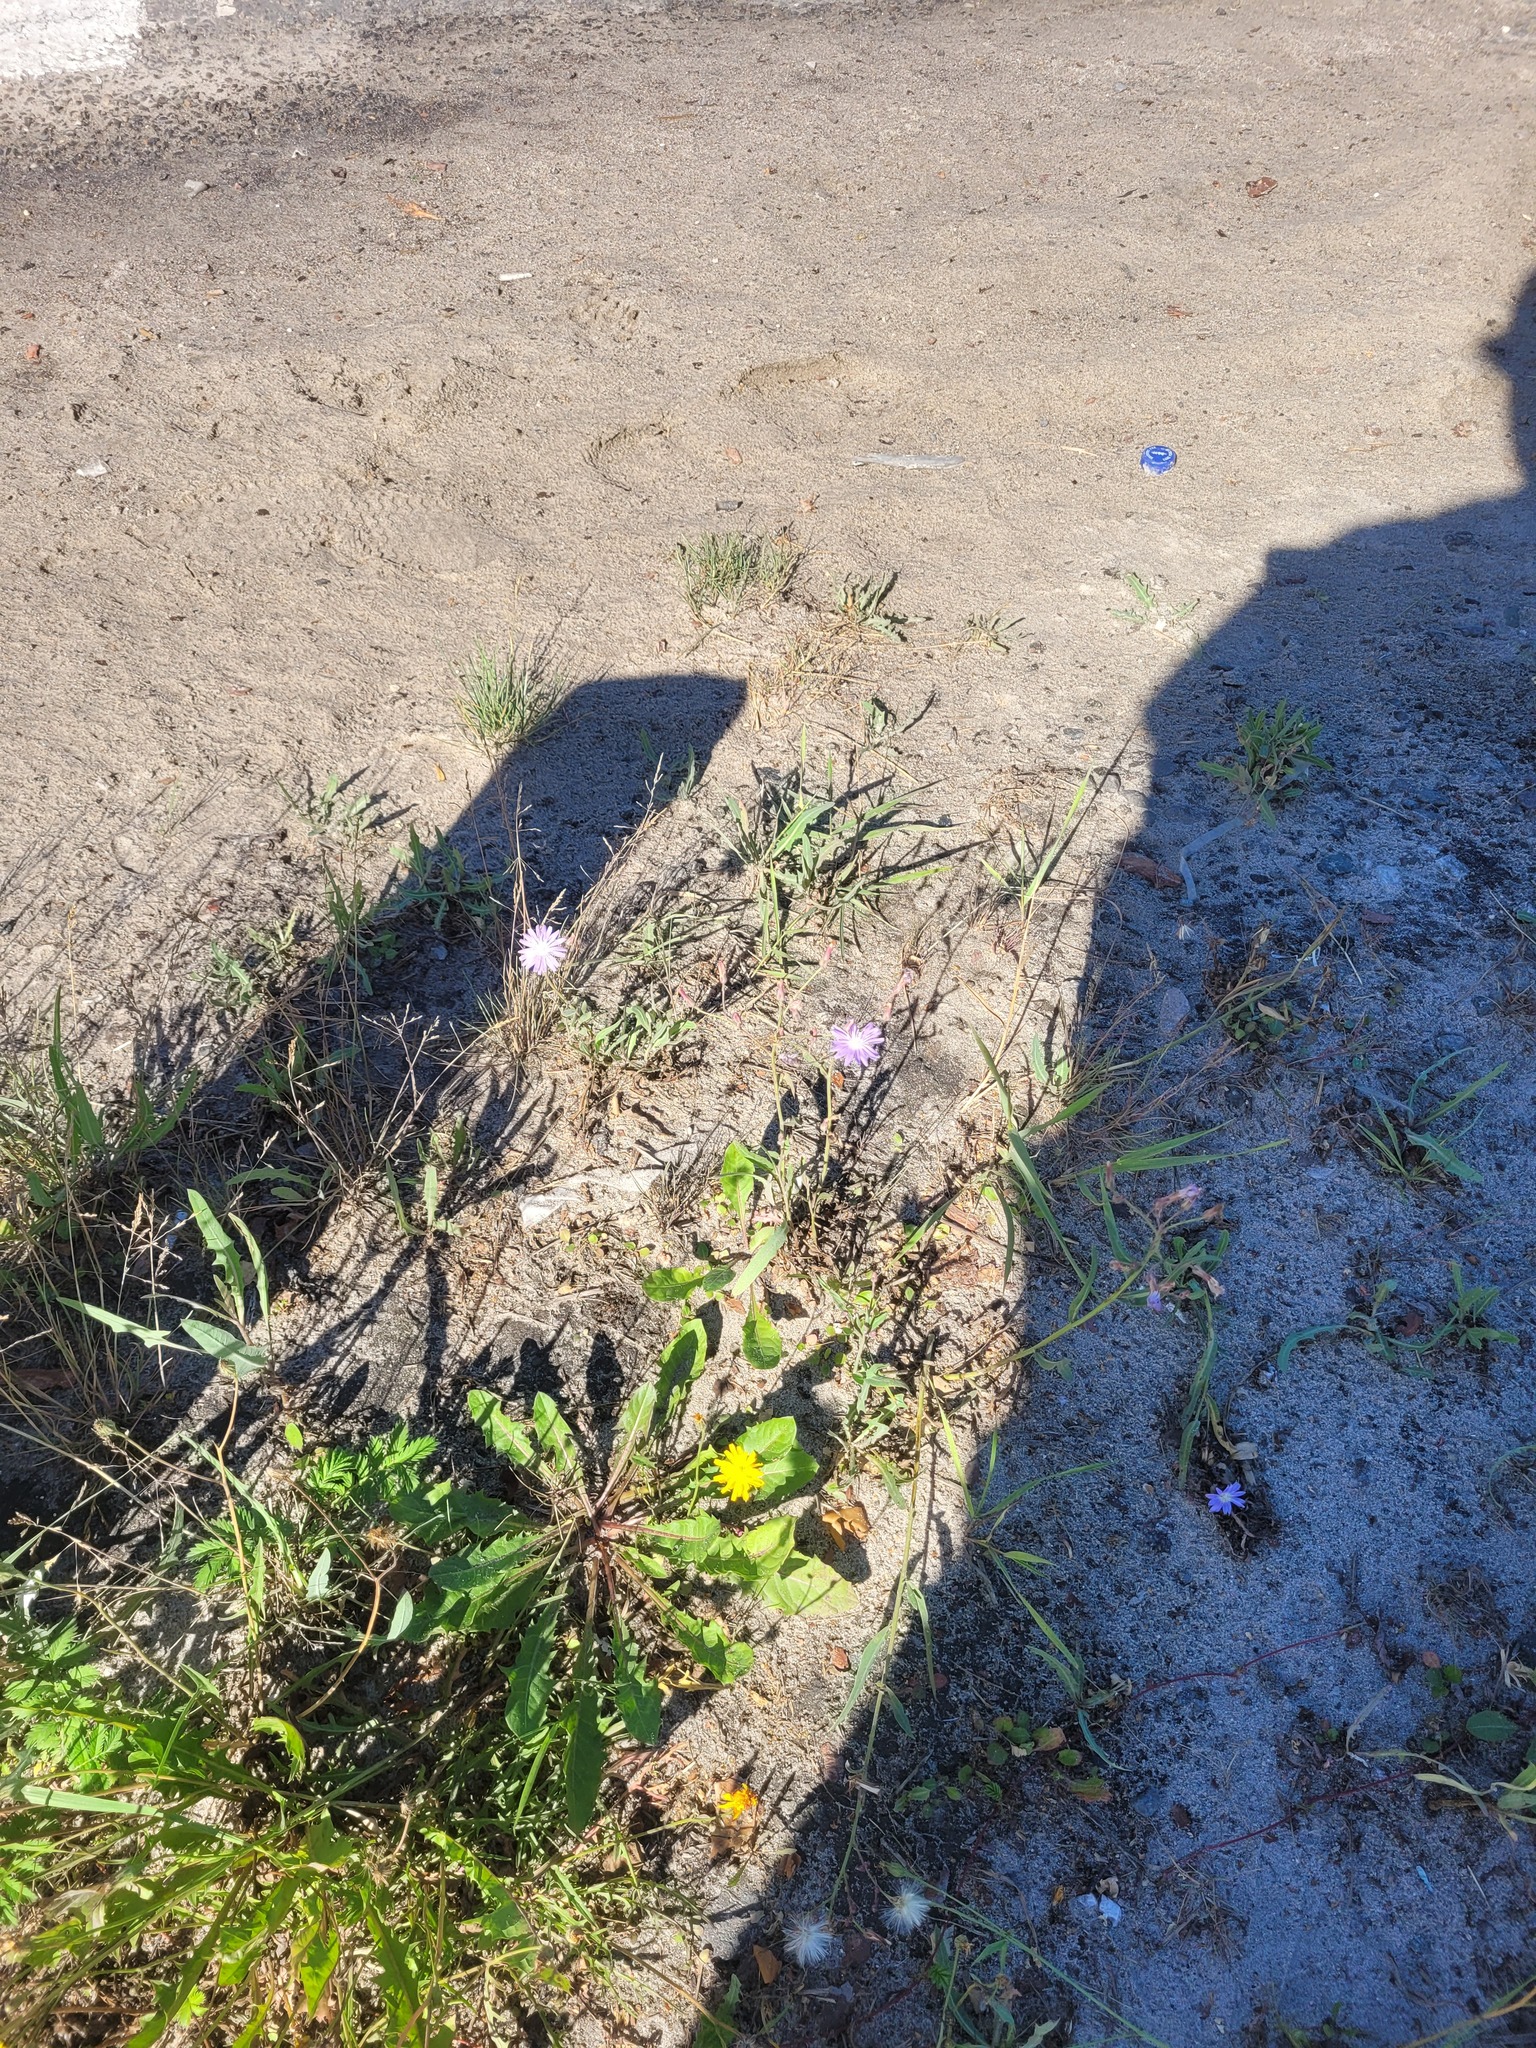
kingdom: Plantae
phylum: Tracheophyta
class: Magnoliopsida
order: Asterales
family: Asteraceae
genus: Lactuca
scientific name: Lactuca tatarica
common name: Blue lettuce
